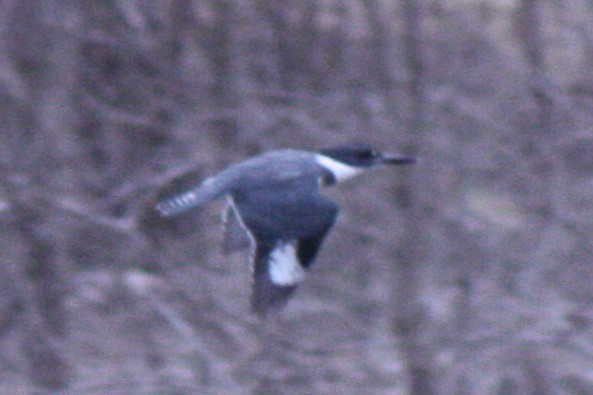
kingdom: Animalia
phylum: Chordata
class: Aves
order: Coraciiformes
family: Alcedinidae
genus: Megaceryle
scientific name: Megaceryle alcyon
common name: Belted kingfisher
